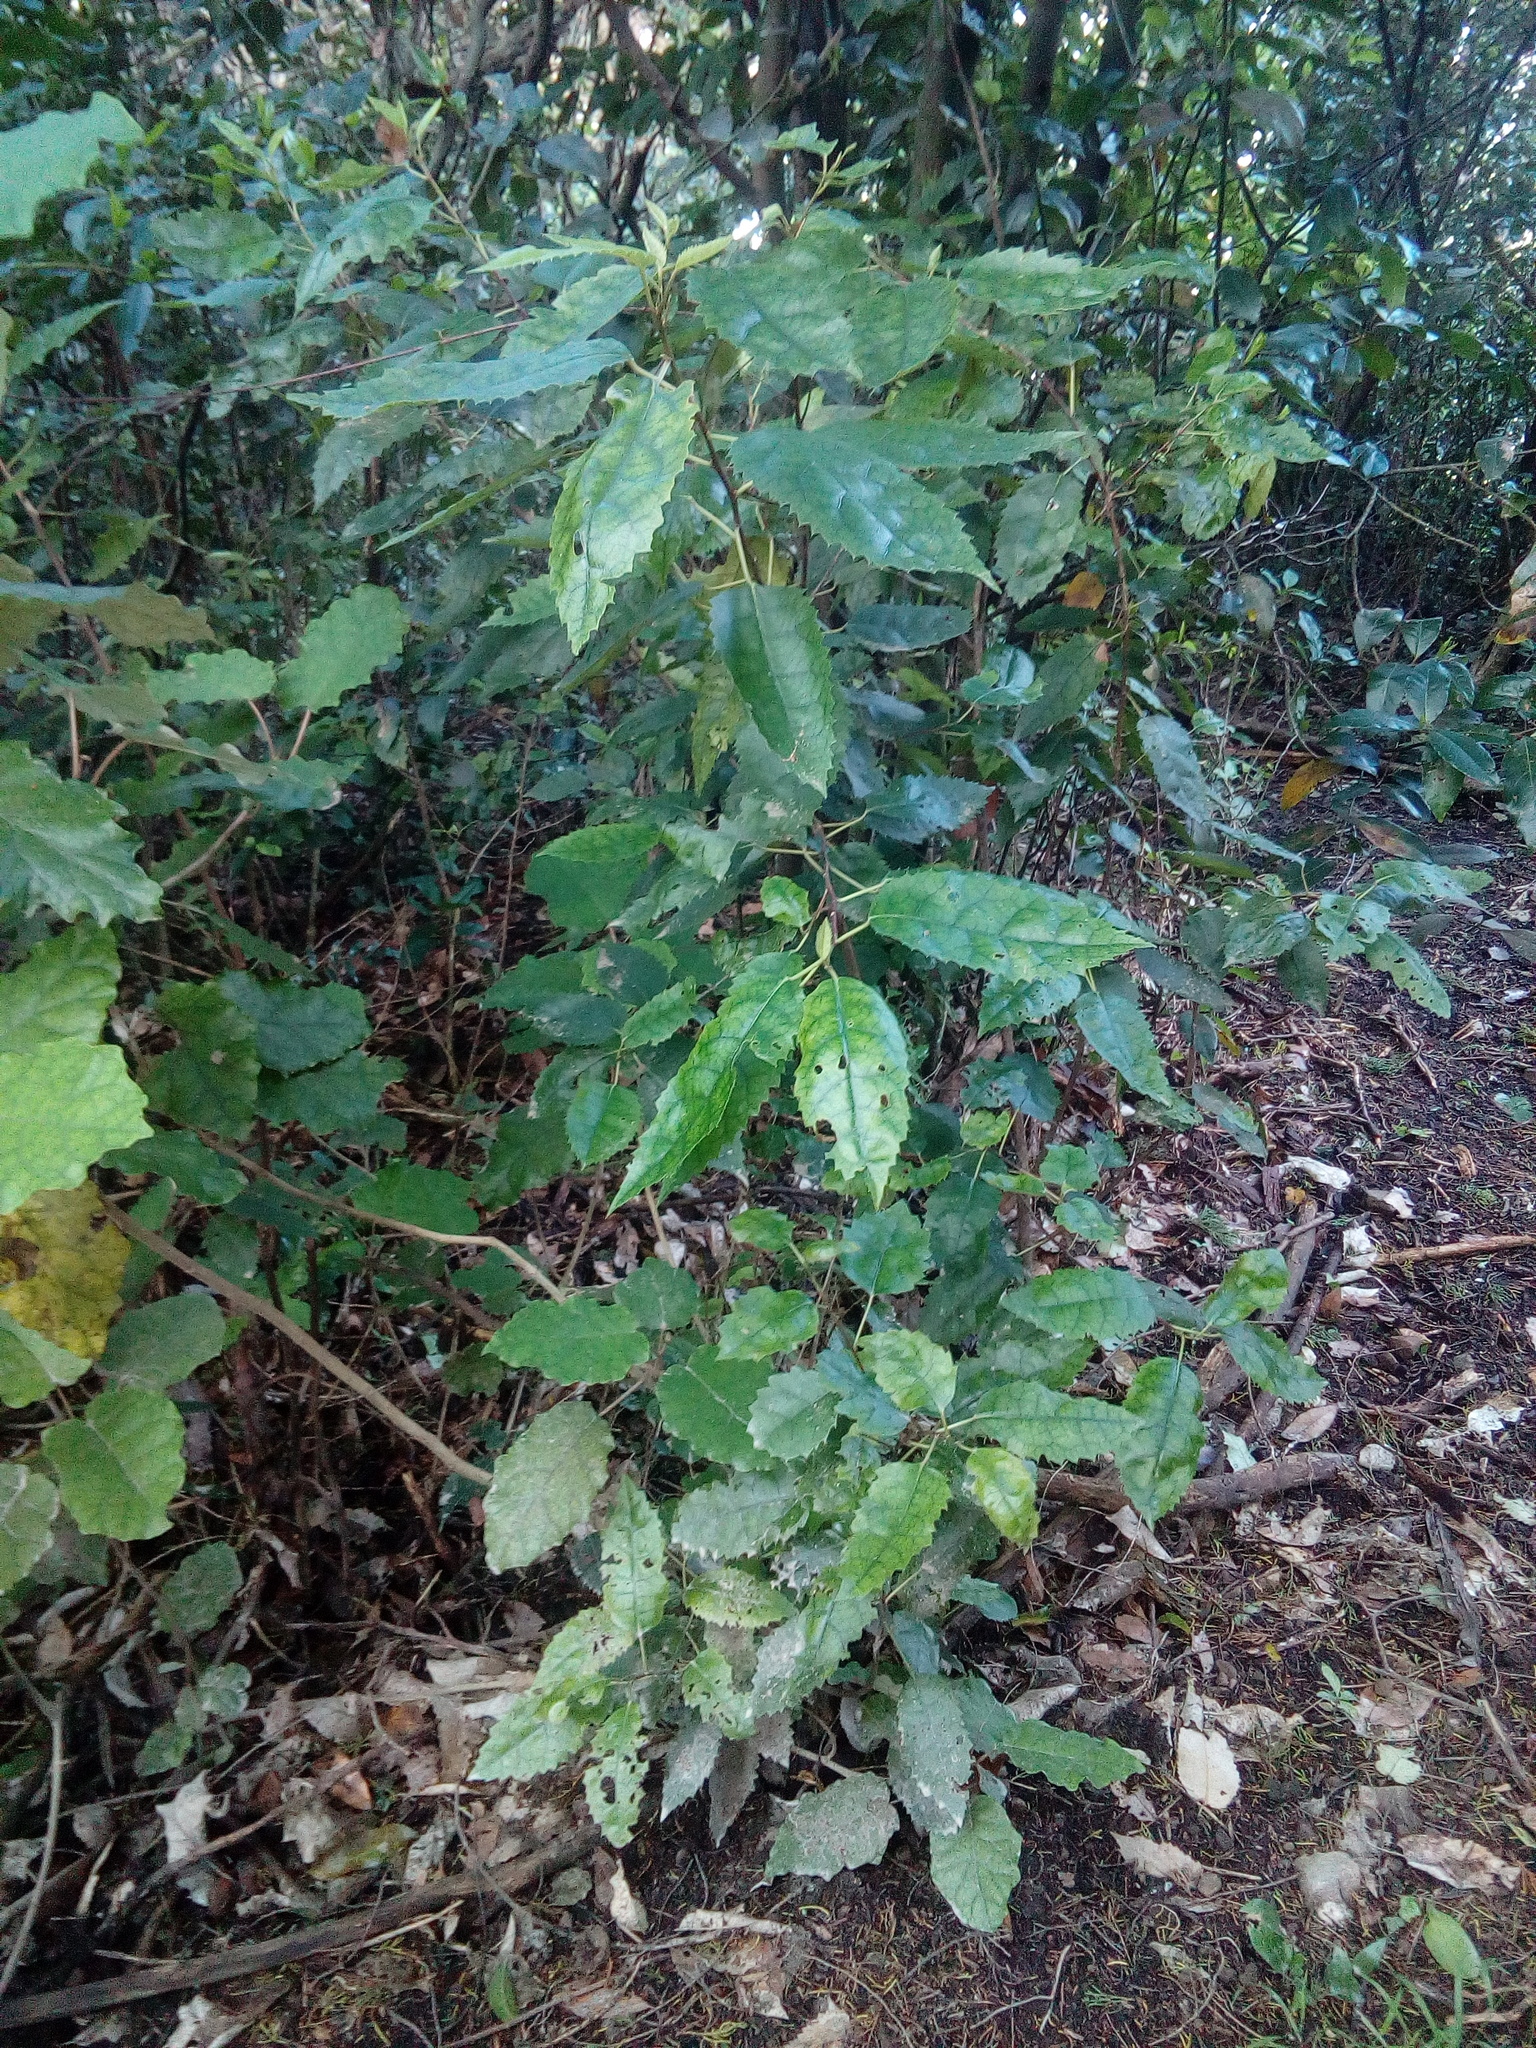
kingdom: Plantae
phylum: Tracheophyta
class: Magnoliopsida
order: Malvales
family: Malvaceae
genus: Hoheria
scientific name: Hoheria populnea
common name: Lacebark
